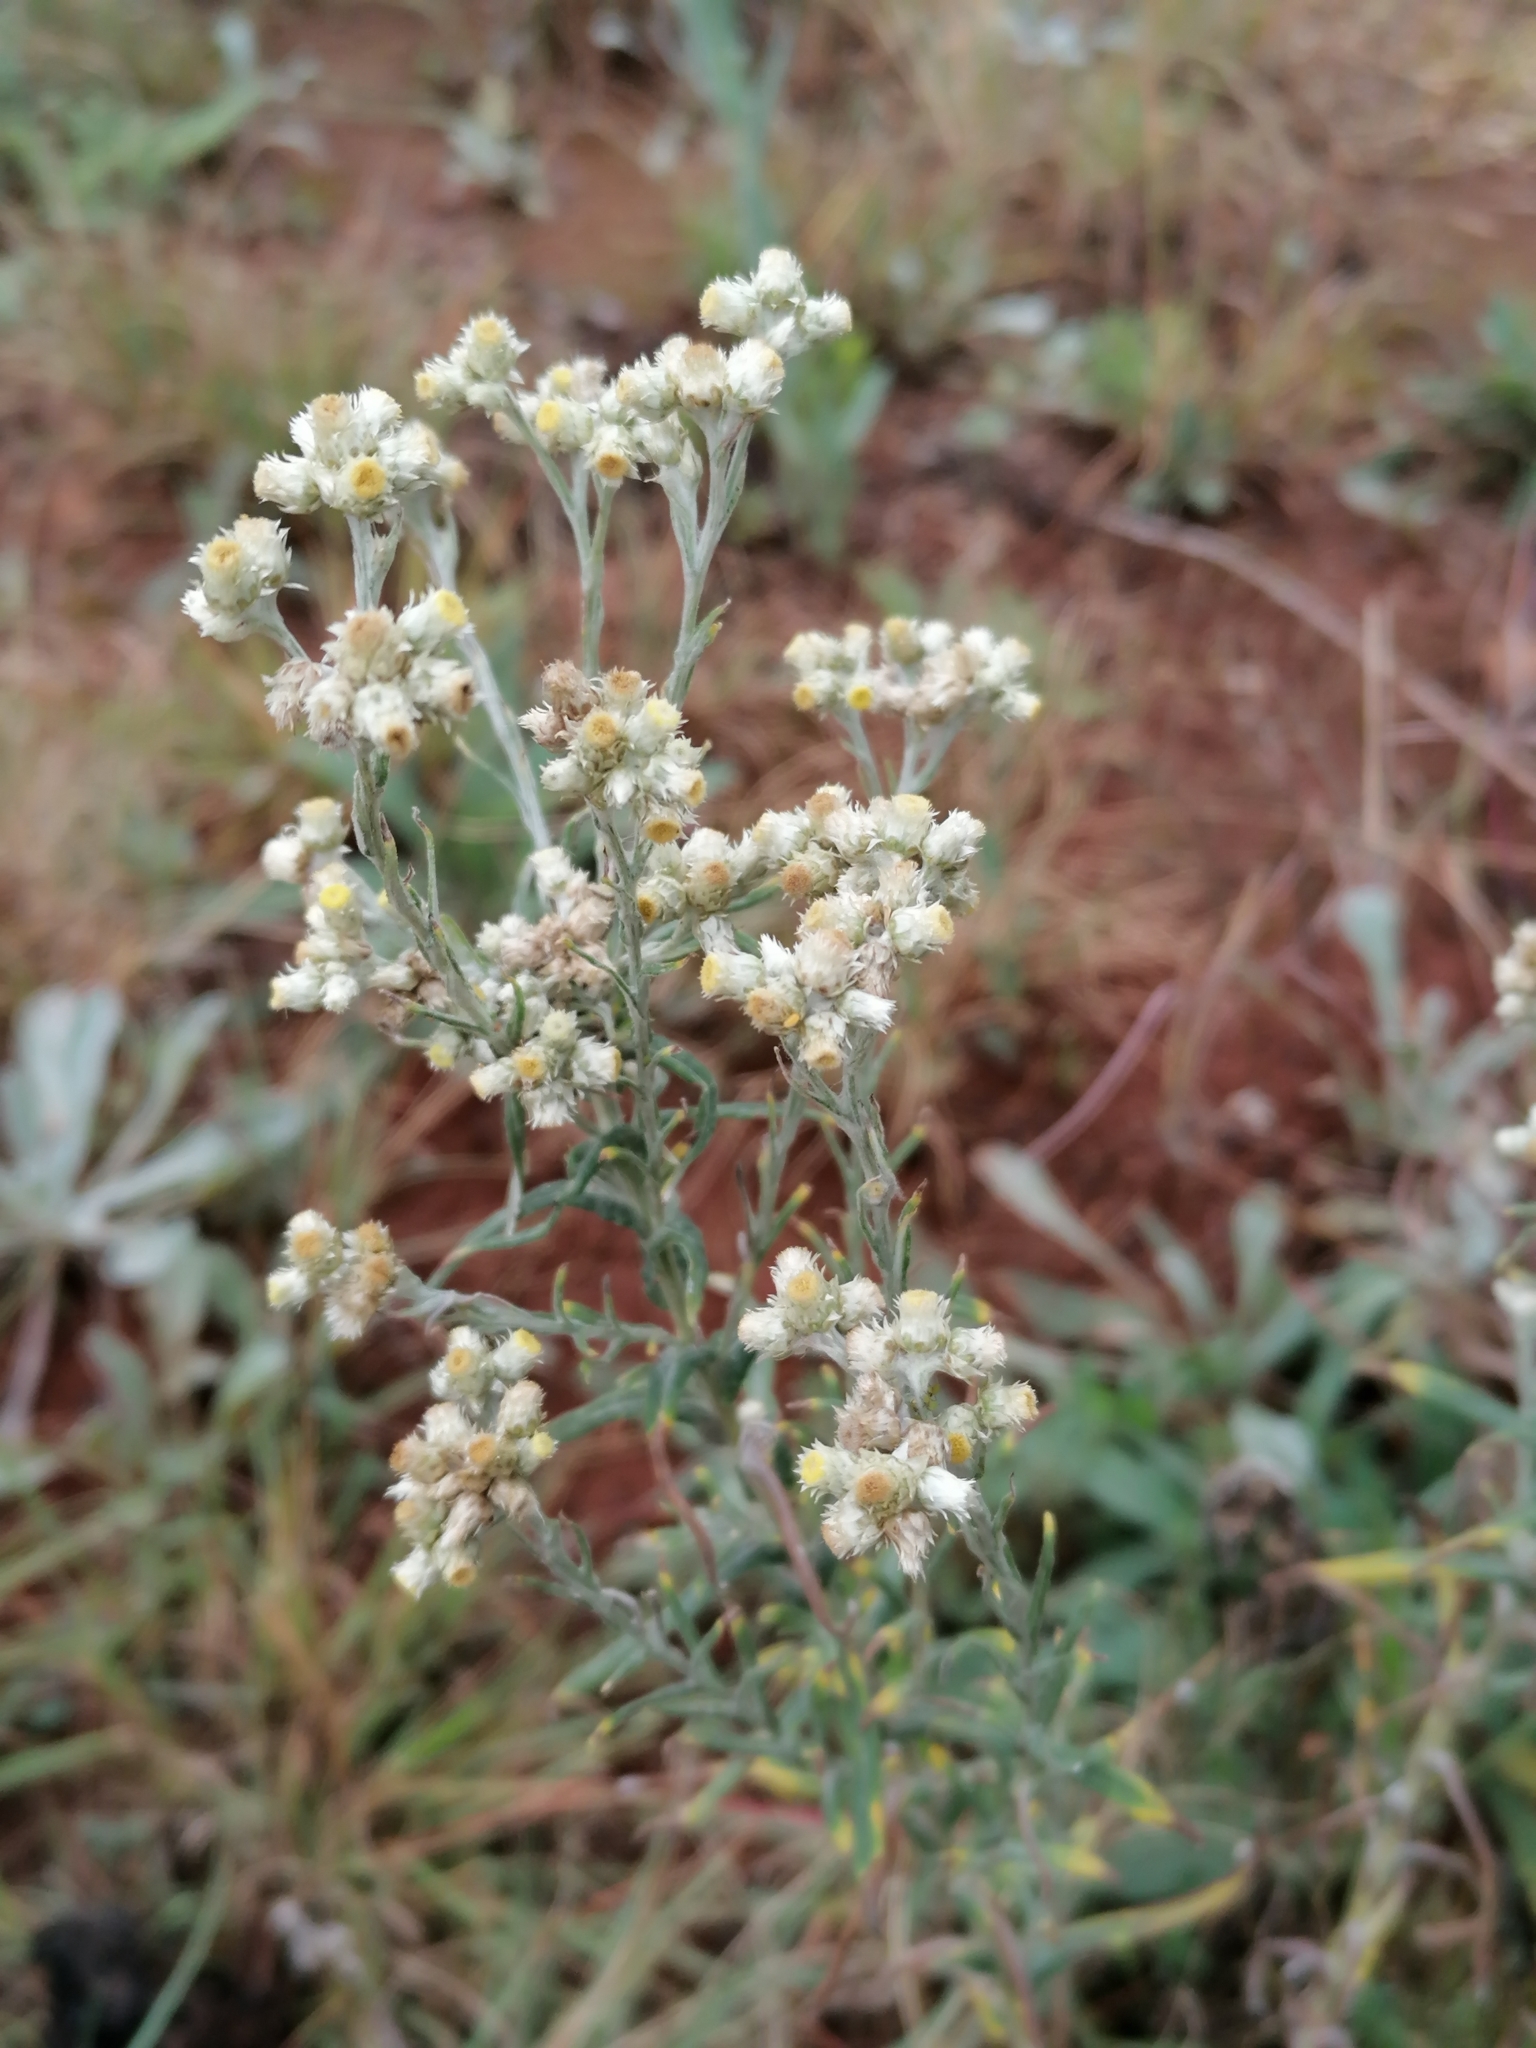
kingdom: Plantae
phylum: Tracheophyta
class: Magnoliopsida
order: Asterales
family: Asteraceae
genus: Helichrysum
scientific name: Helichrysum rugulosum
